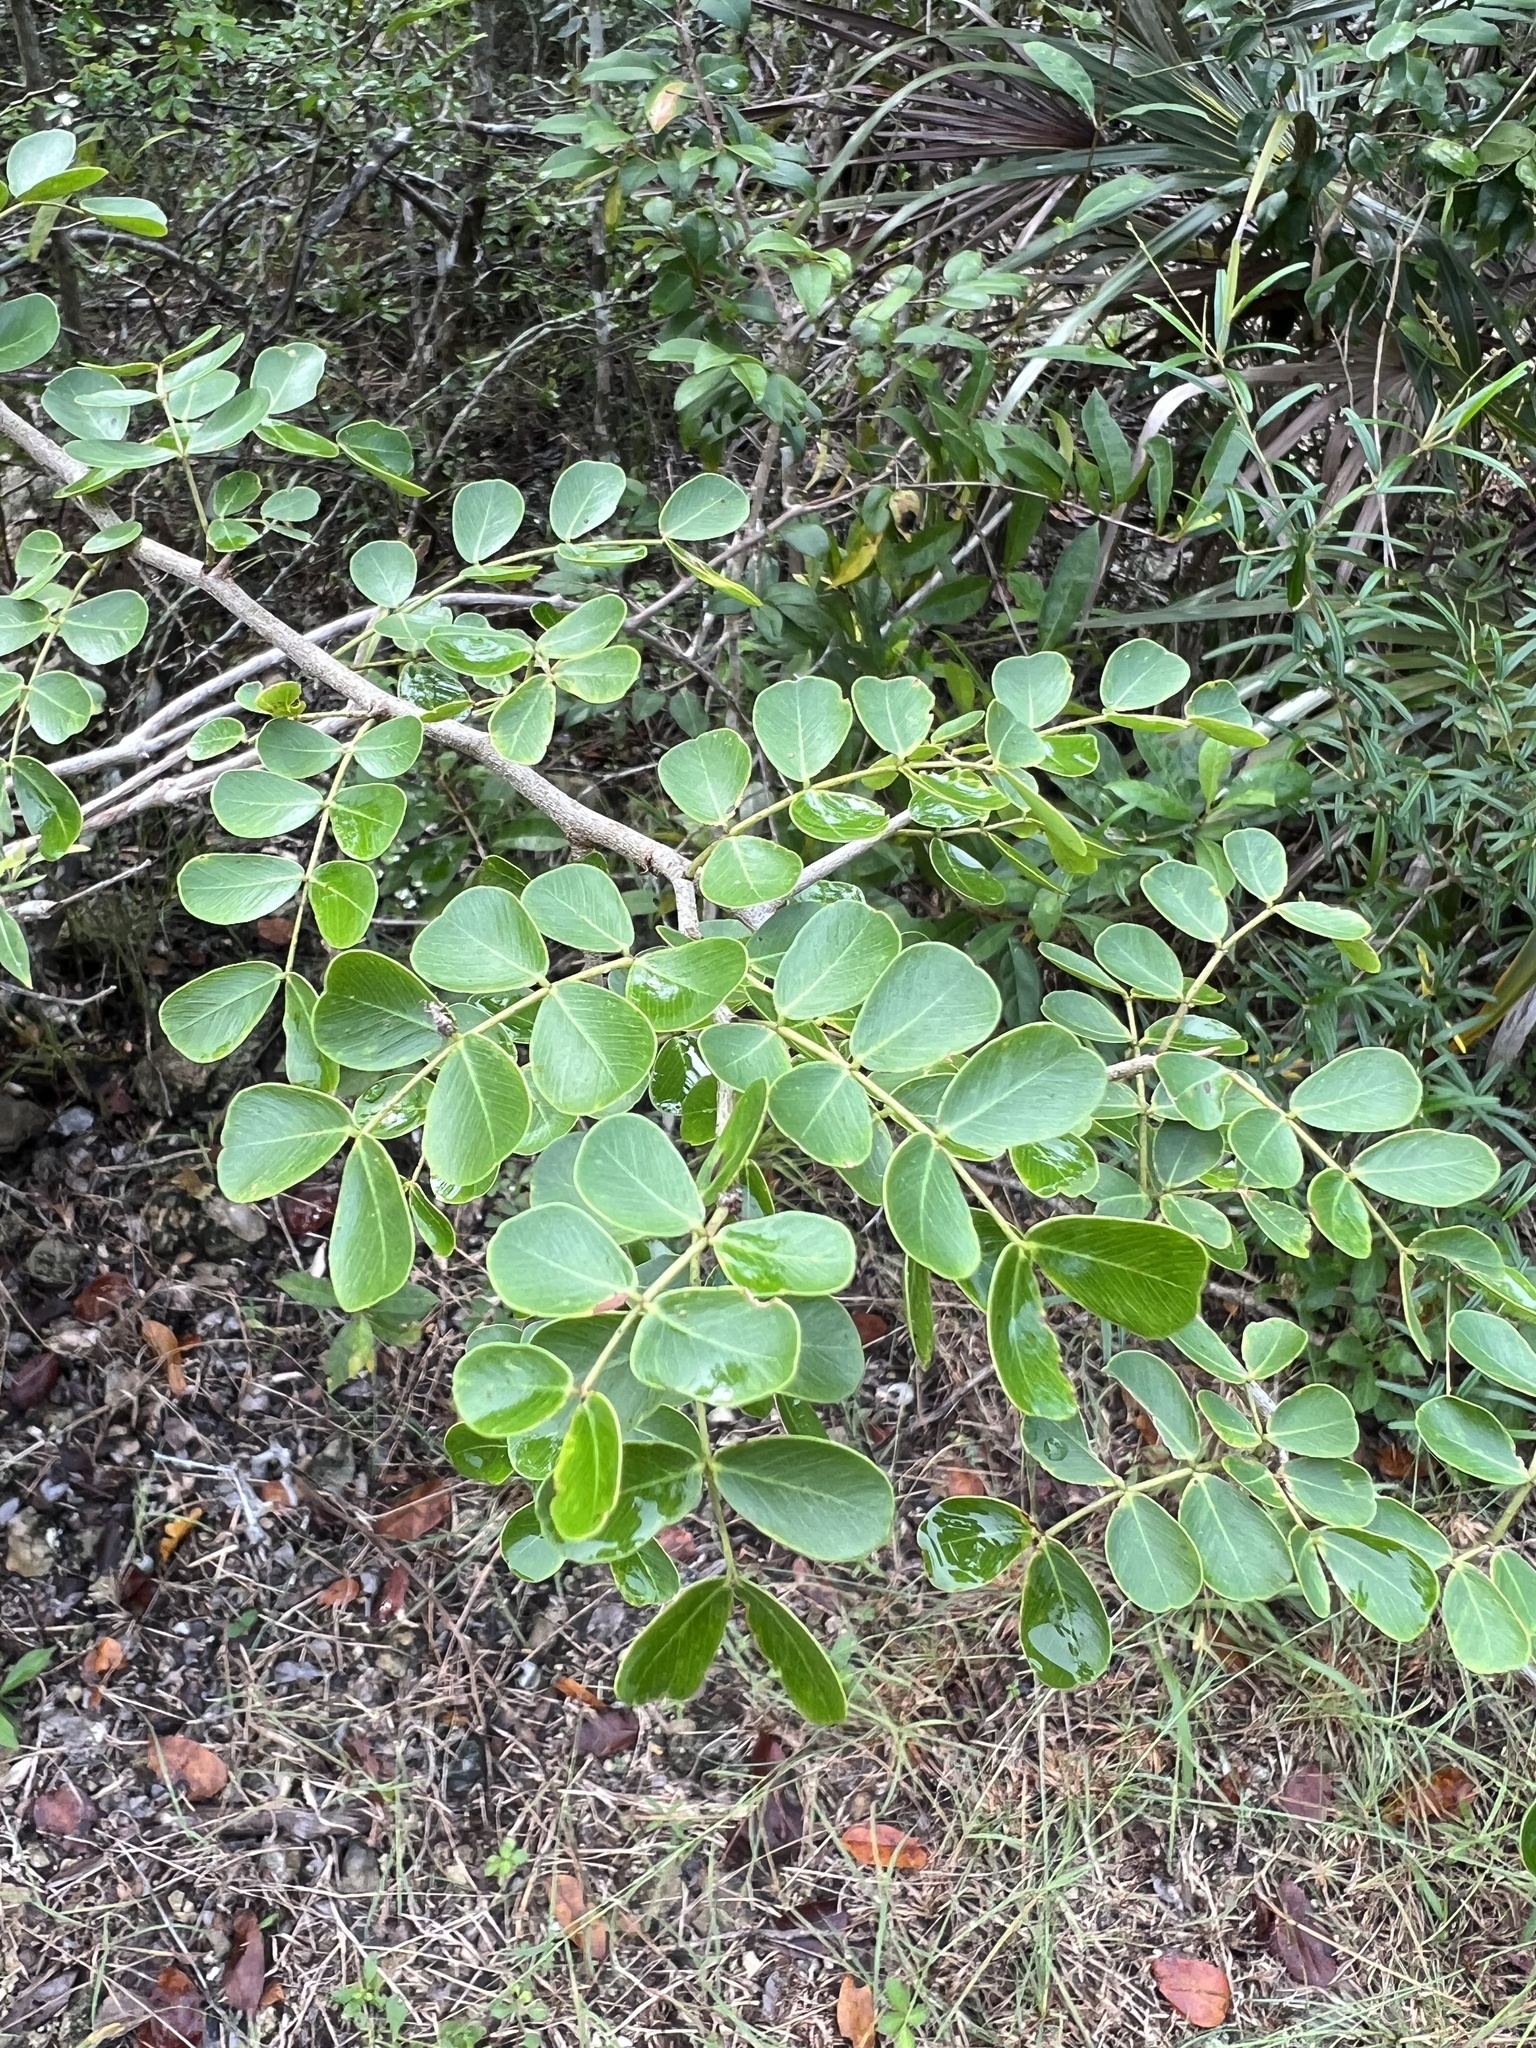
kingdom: Plantae
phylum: Tracheophyta
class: Magnoliopsida
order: Fabales
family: Fabaceae
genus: Haematoxylum
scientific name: Haematoxylum campechianum
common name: Logwood
